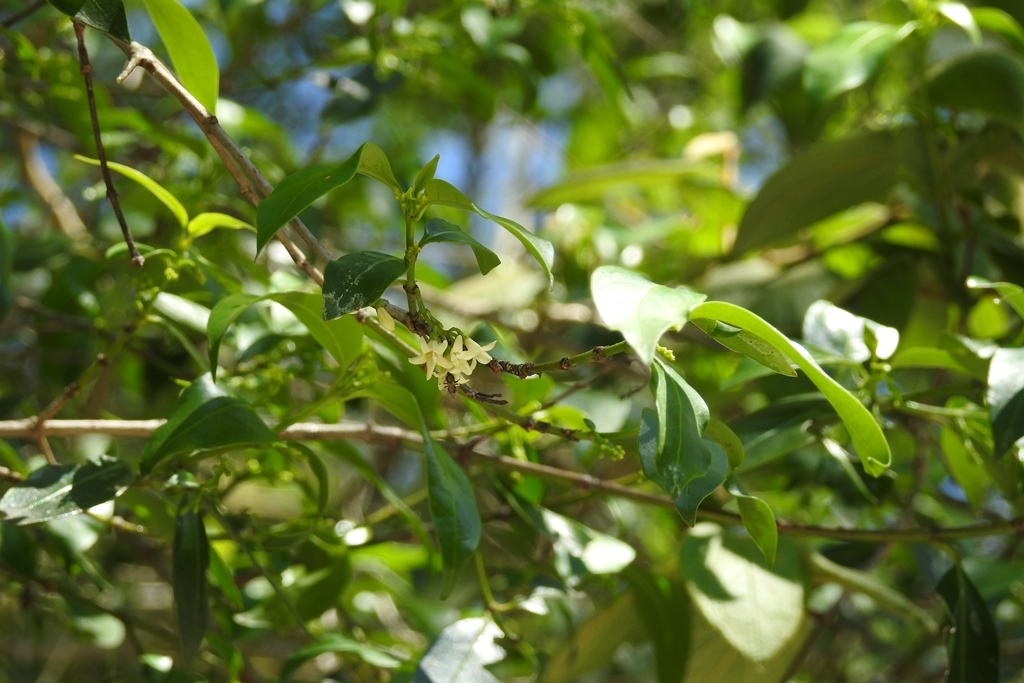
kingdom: Plantae
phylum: Tracheophyta
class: Magnoliopsida
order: Gentianales
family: Rubiaceae
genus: Chiococca
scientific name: Chiococca alba
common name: Snowberry
